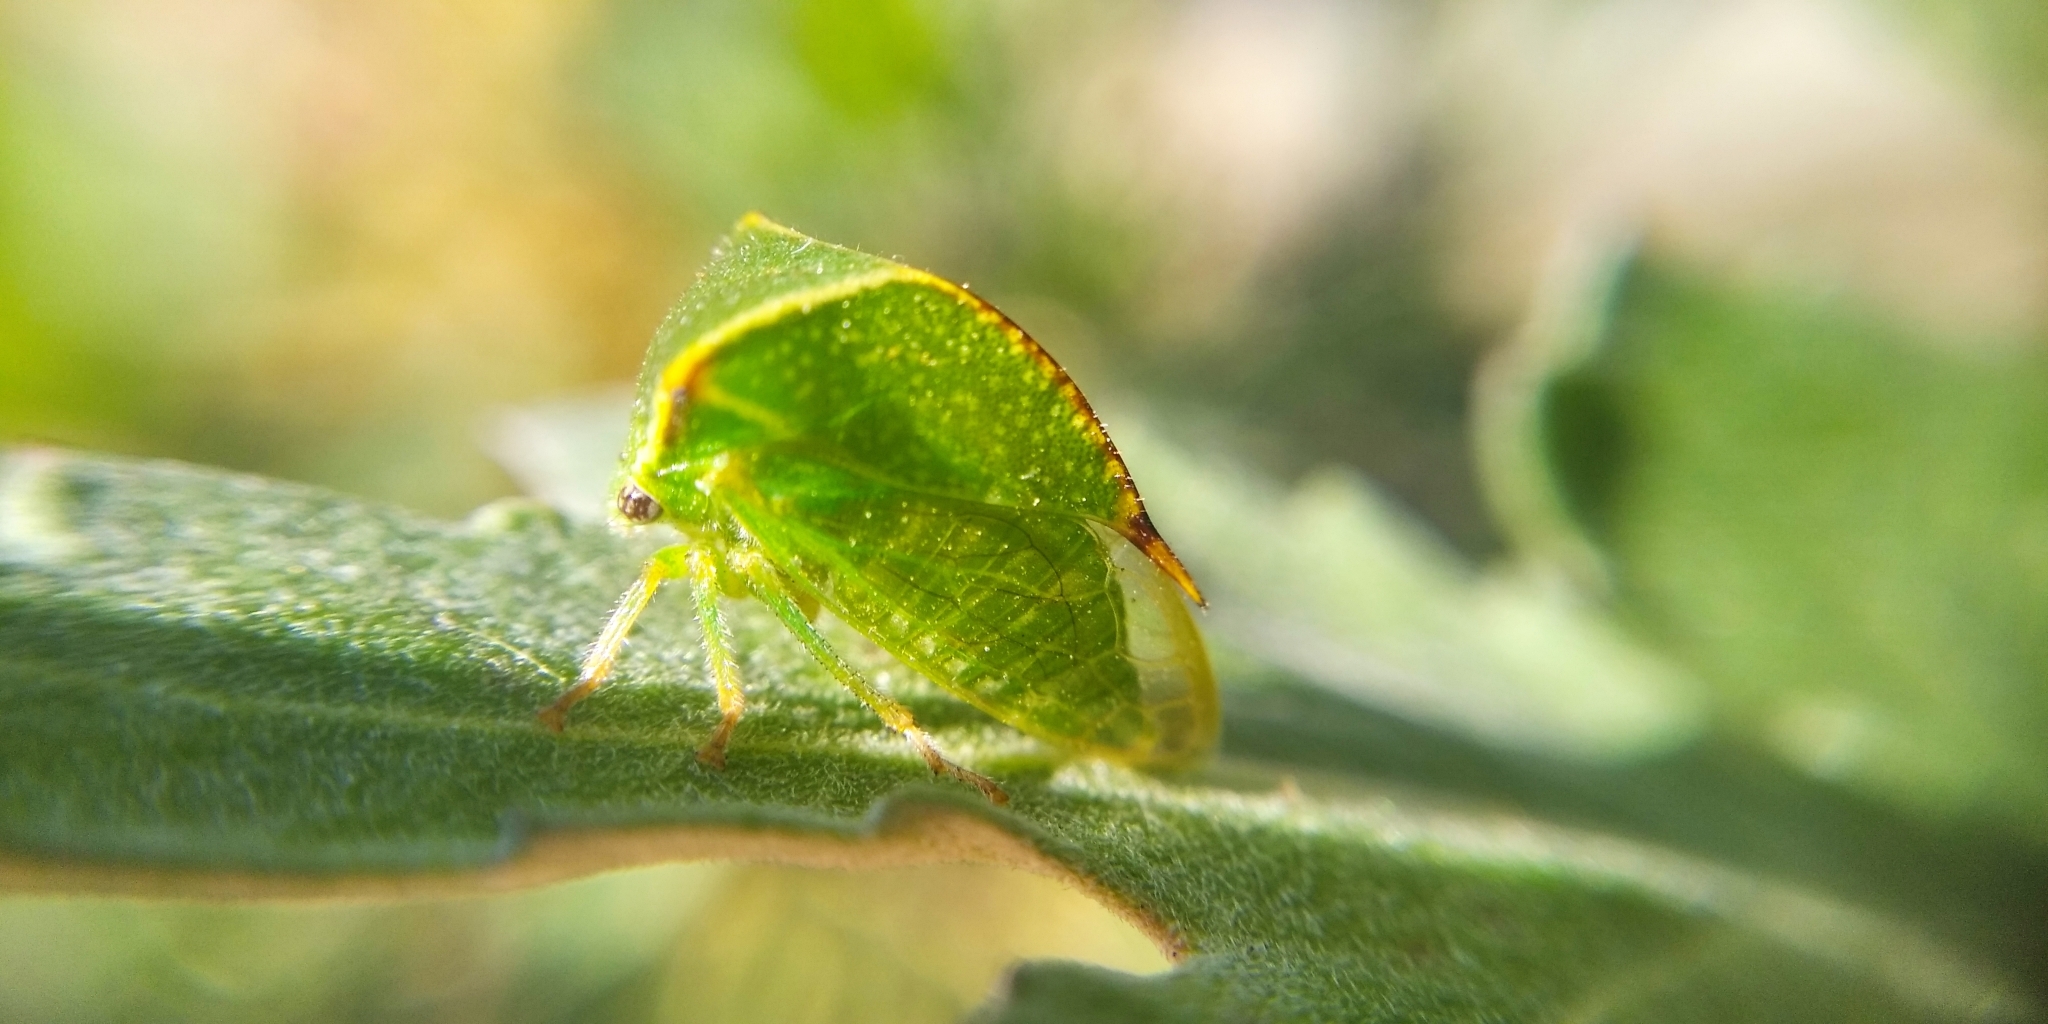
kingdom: Animalia
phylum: Arthropoda
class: Insecta
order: Hemiptera
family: Membracidae
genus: Stictocephala
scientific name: Stictocephala bisonia
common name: American buffalo treehopper
